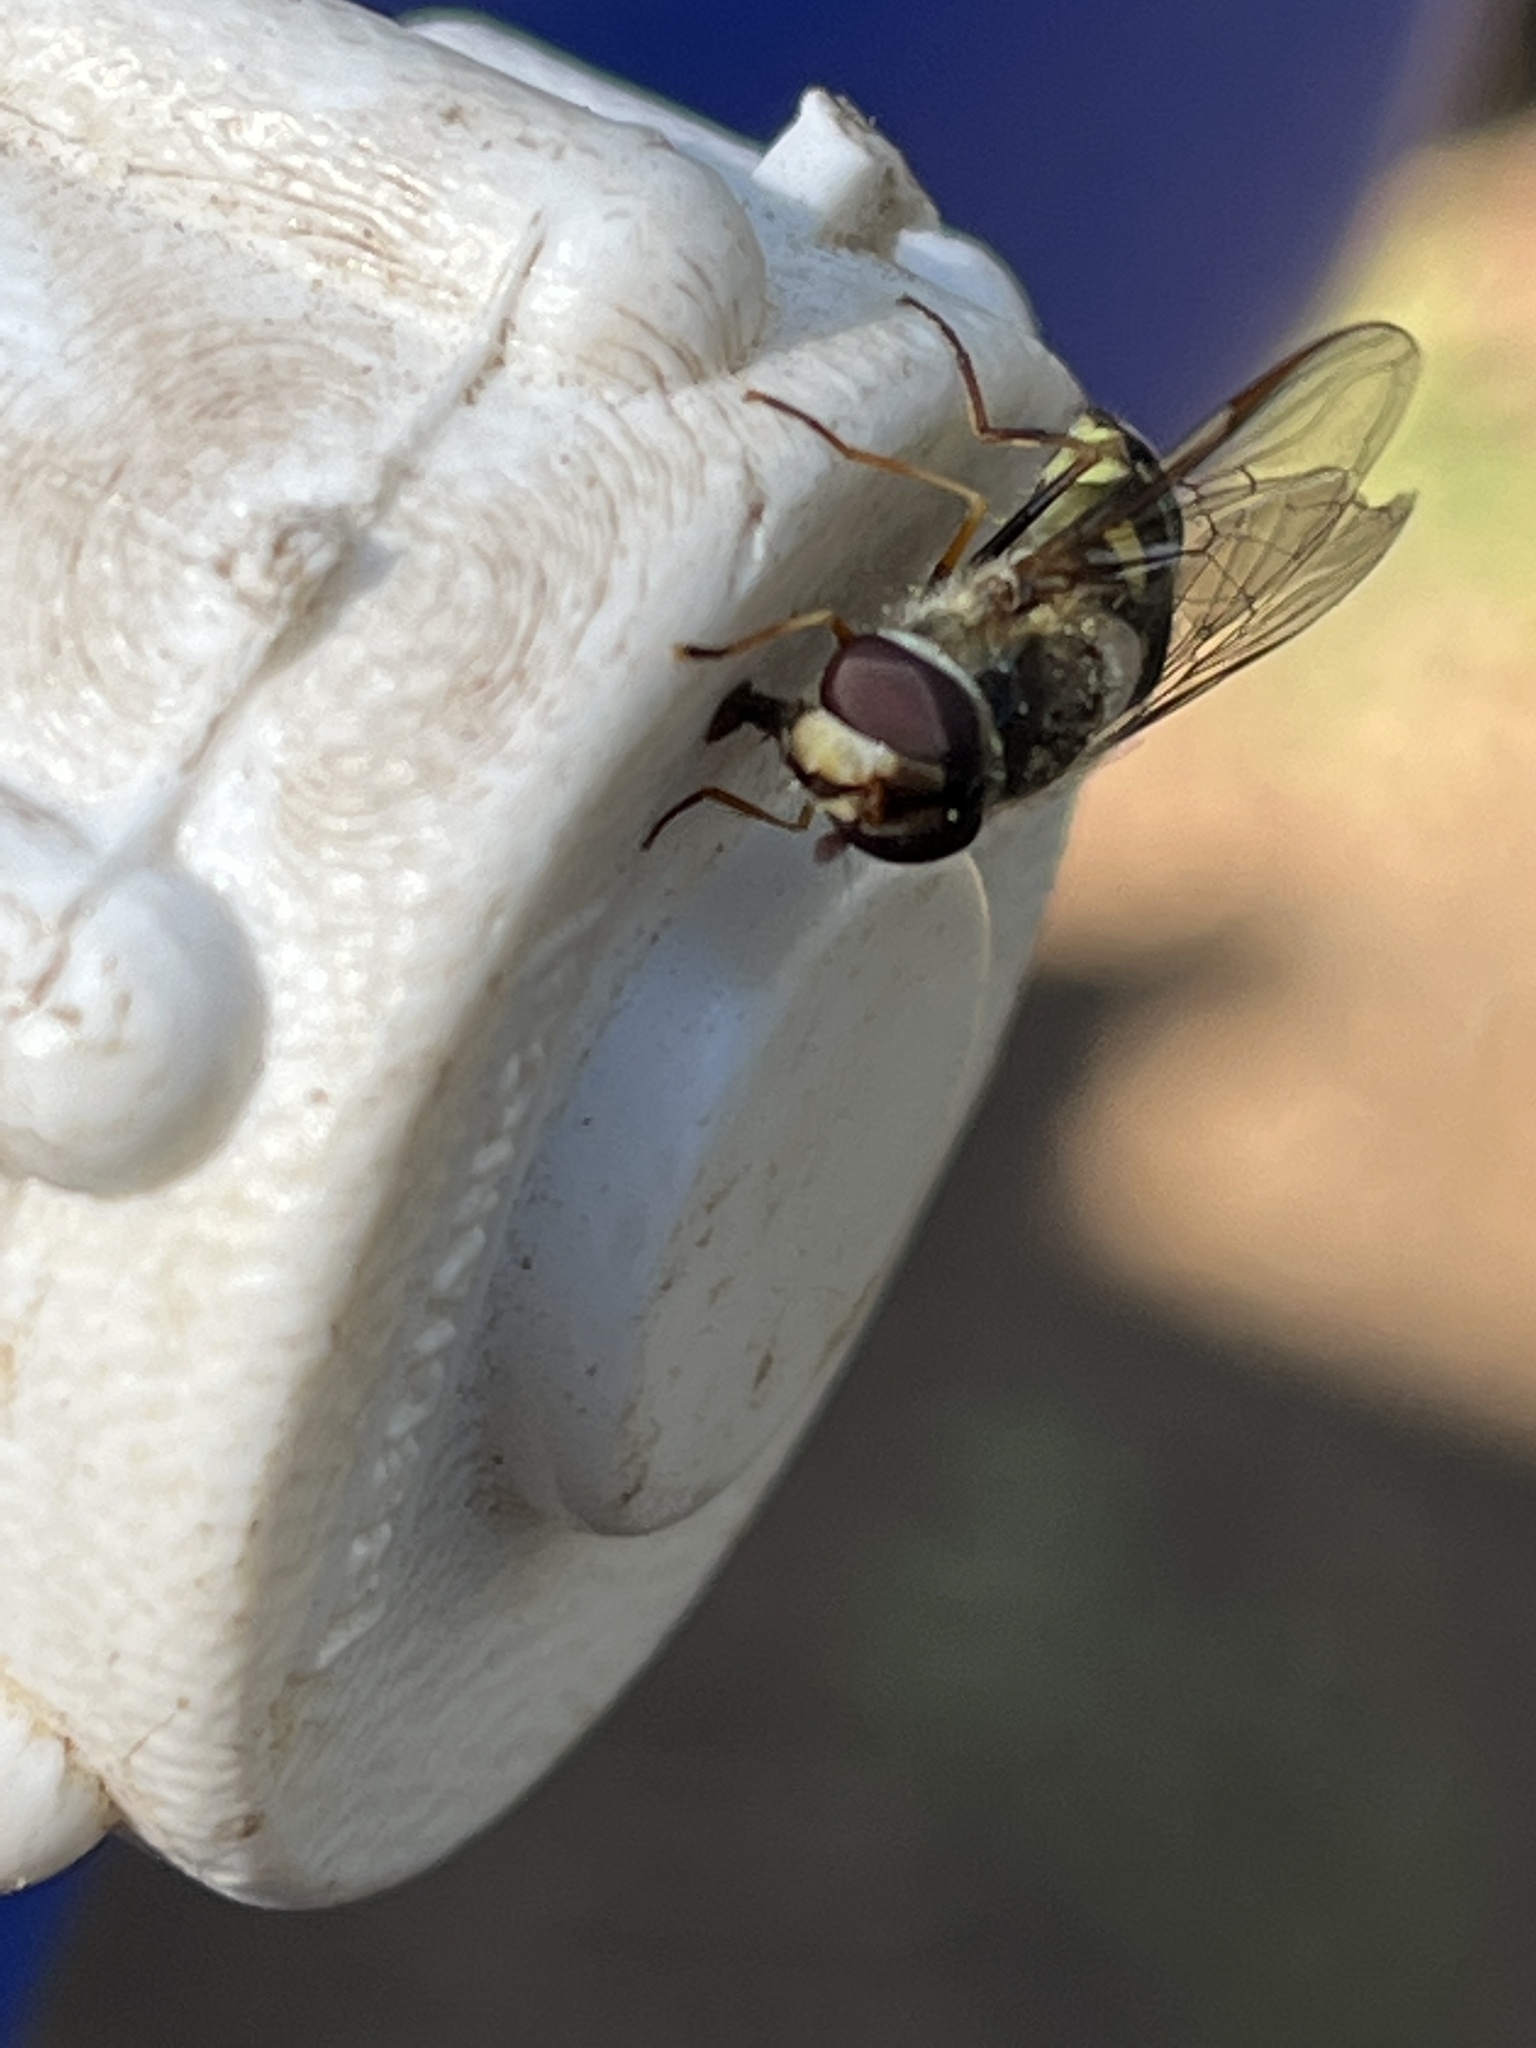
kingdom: Animalia
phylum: Arthropoda
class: Insecta
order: Diptera
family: Syrphidae
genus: Lapposyrphus
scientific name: Lapposyrphus lapponicus
